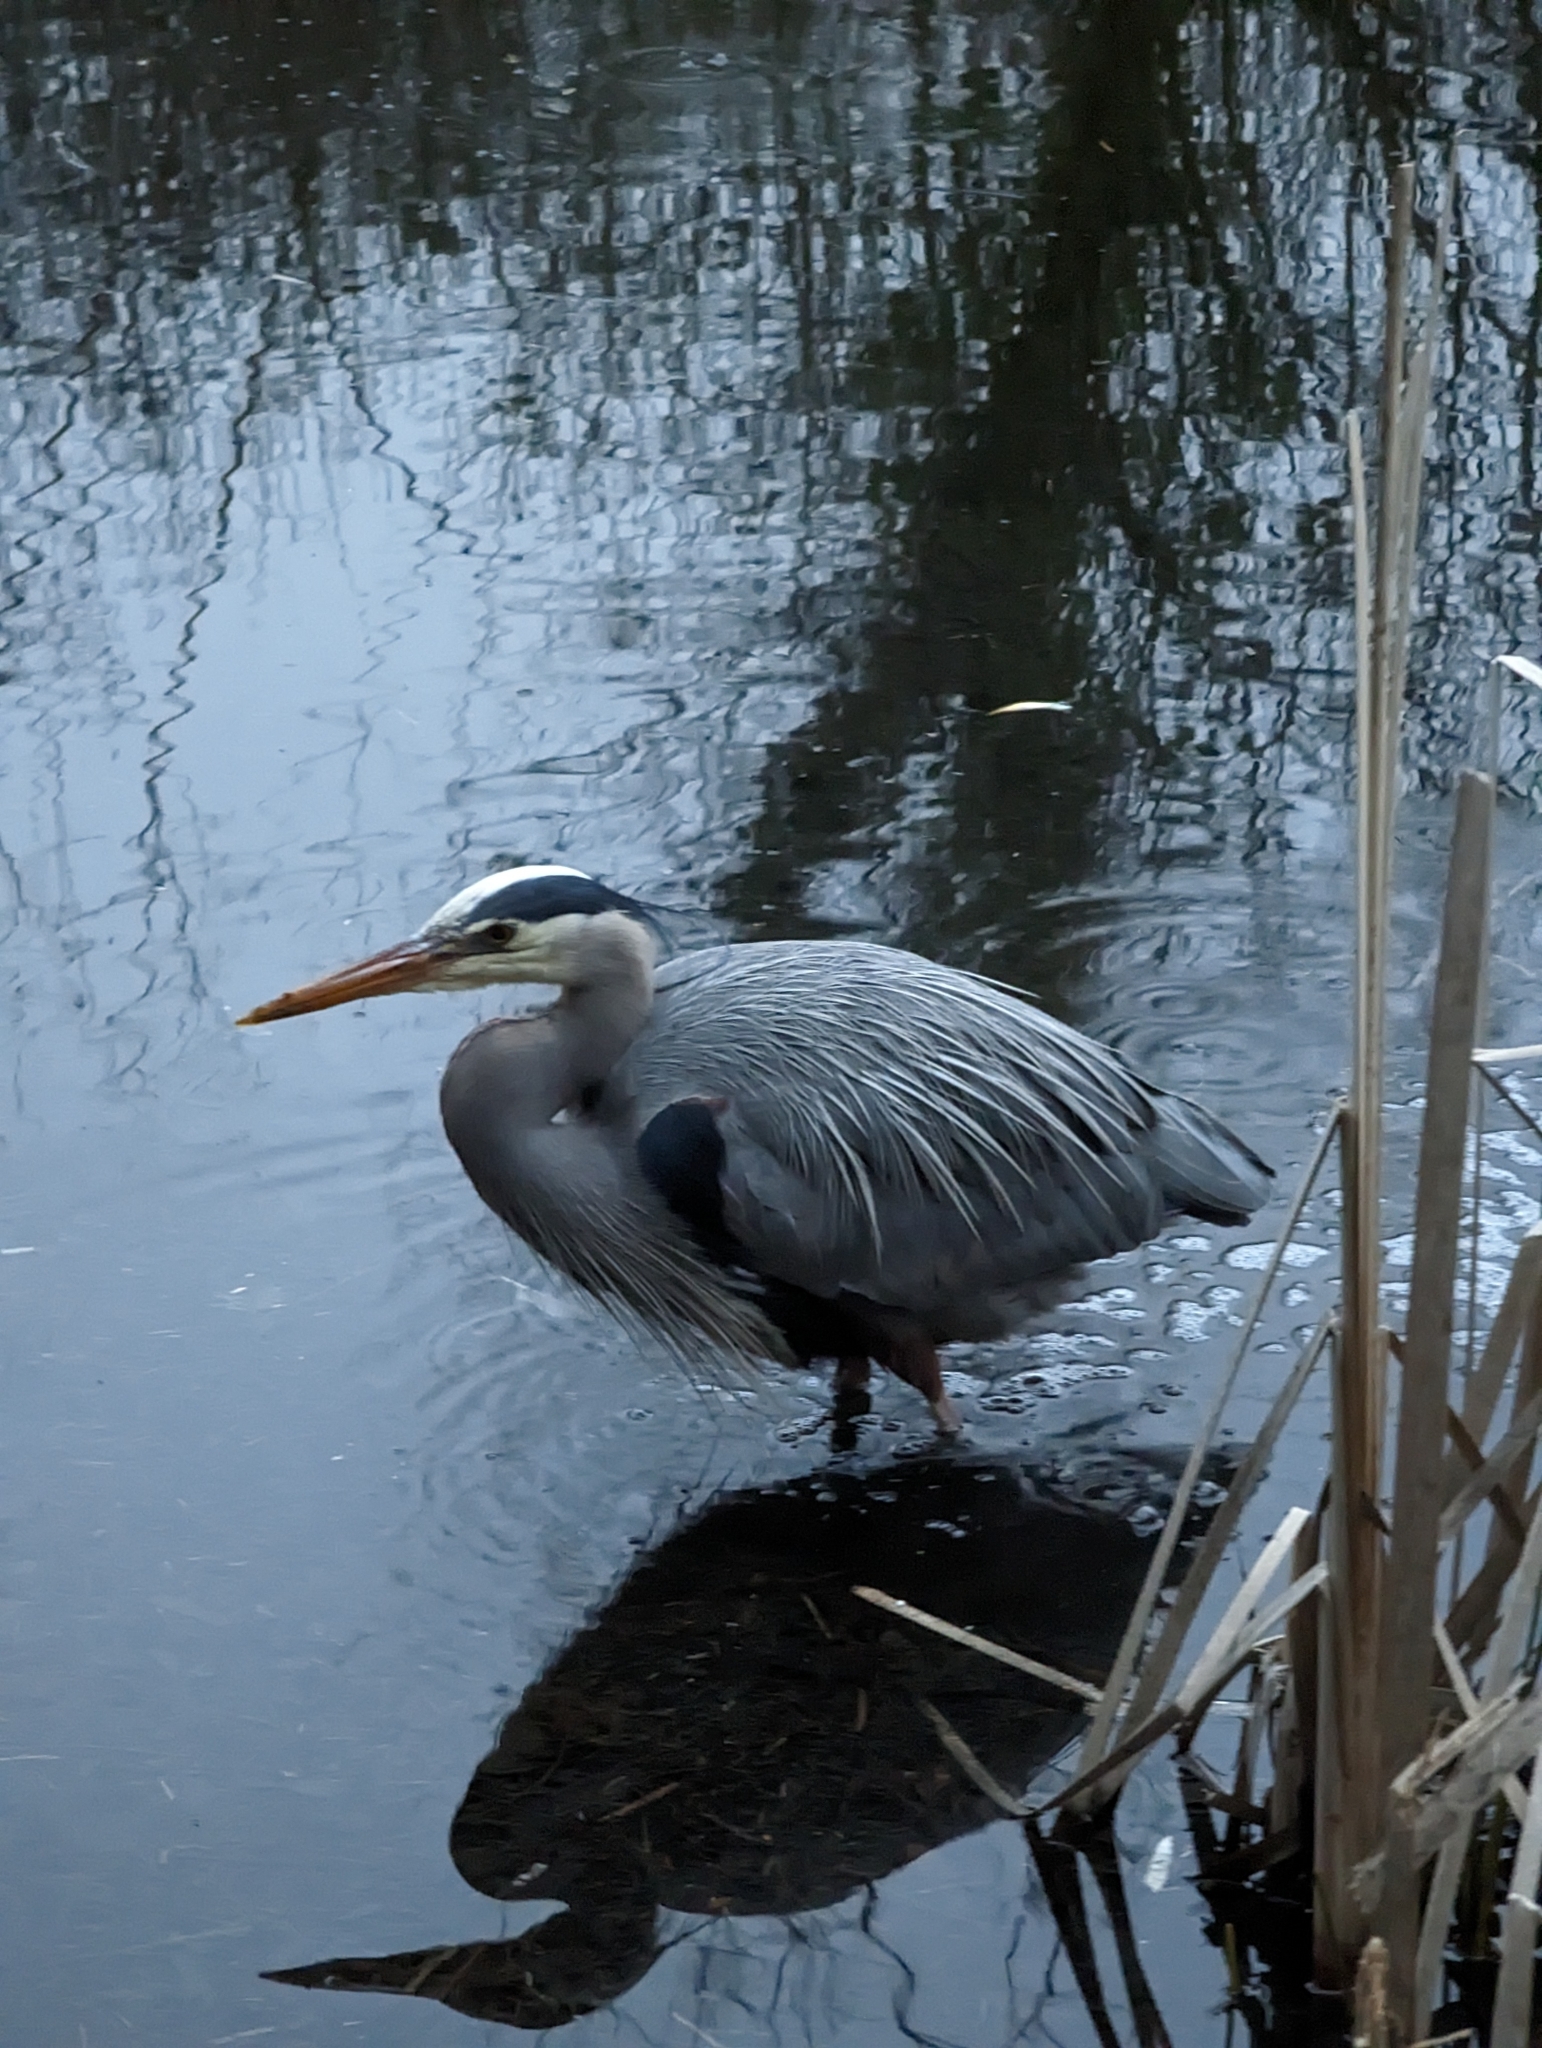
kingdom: Animalia
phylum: Chordata
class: Aves
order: Pelecaniformes
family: Ardeidae
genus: Ardea
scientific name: Ardea herodias
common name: Great blue heron
